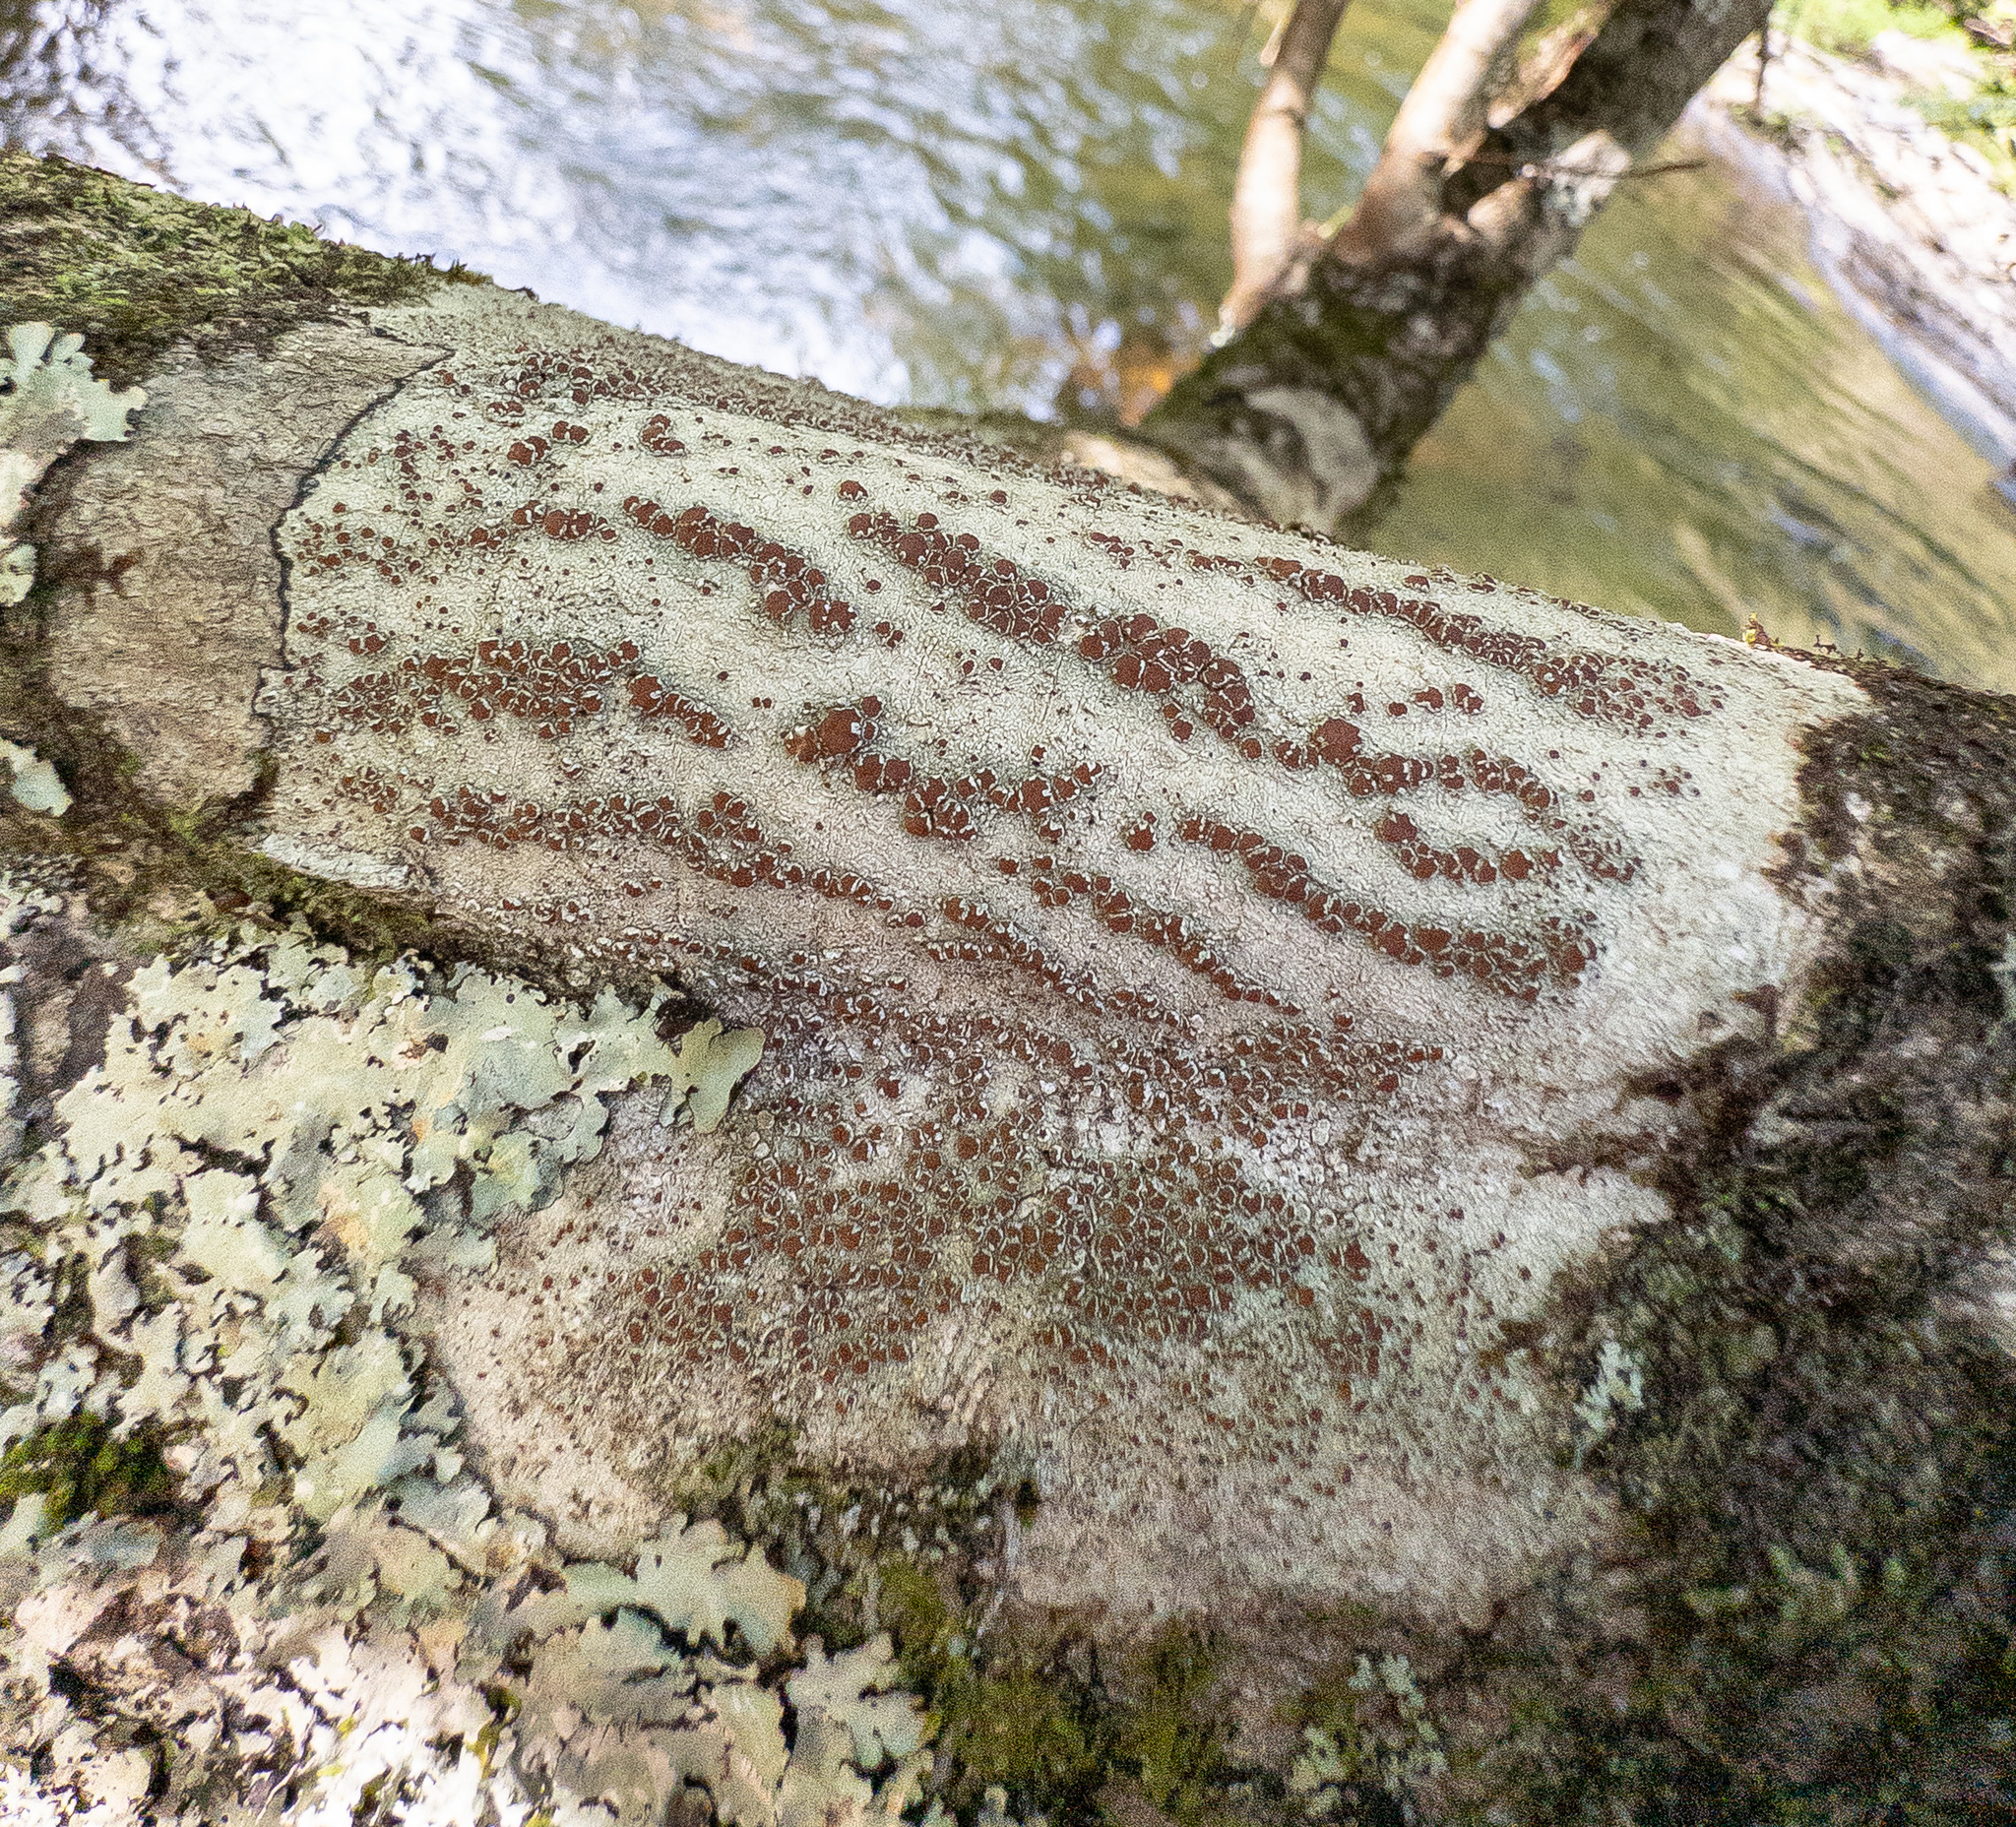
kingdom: Fungi
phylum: Ascomycota
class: Lecanoromycetes
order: Lecanorales
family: Lecanoraceae
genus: Lecanora
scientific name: Lecanora hybocarpa
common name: Bumpy rim-lichen
